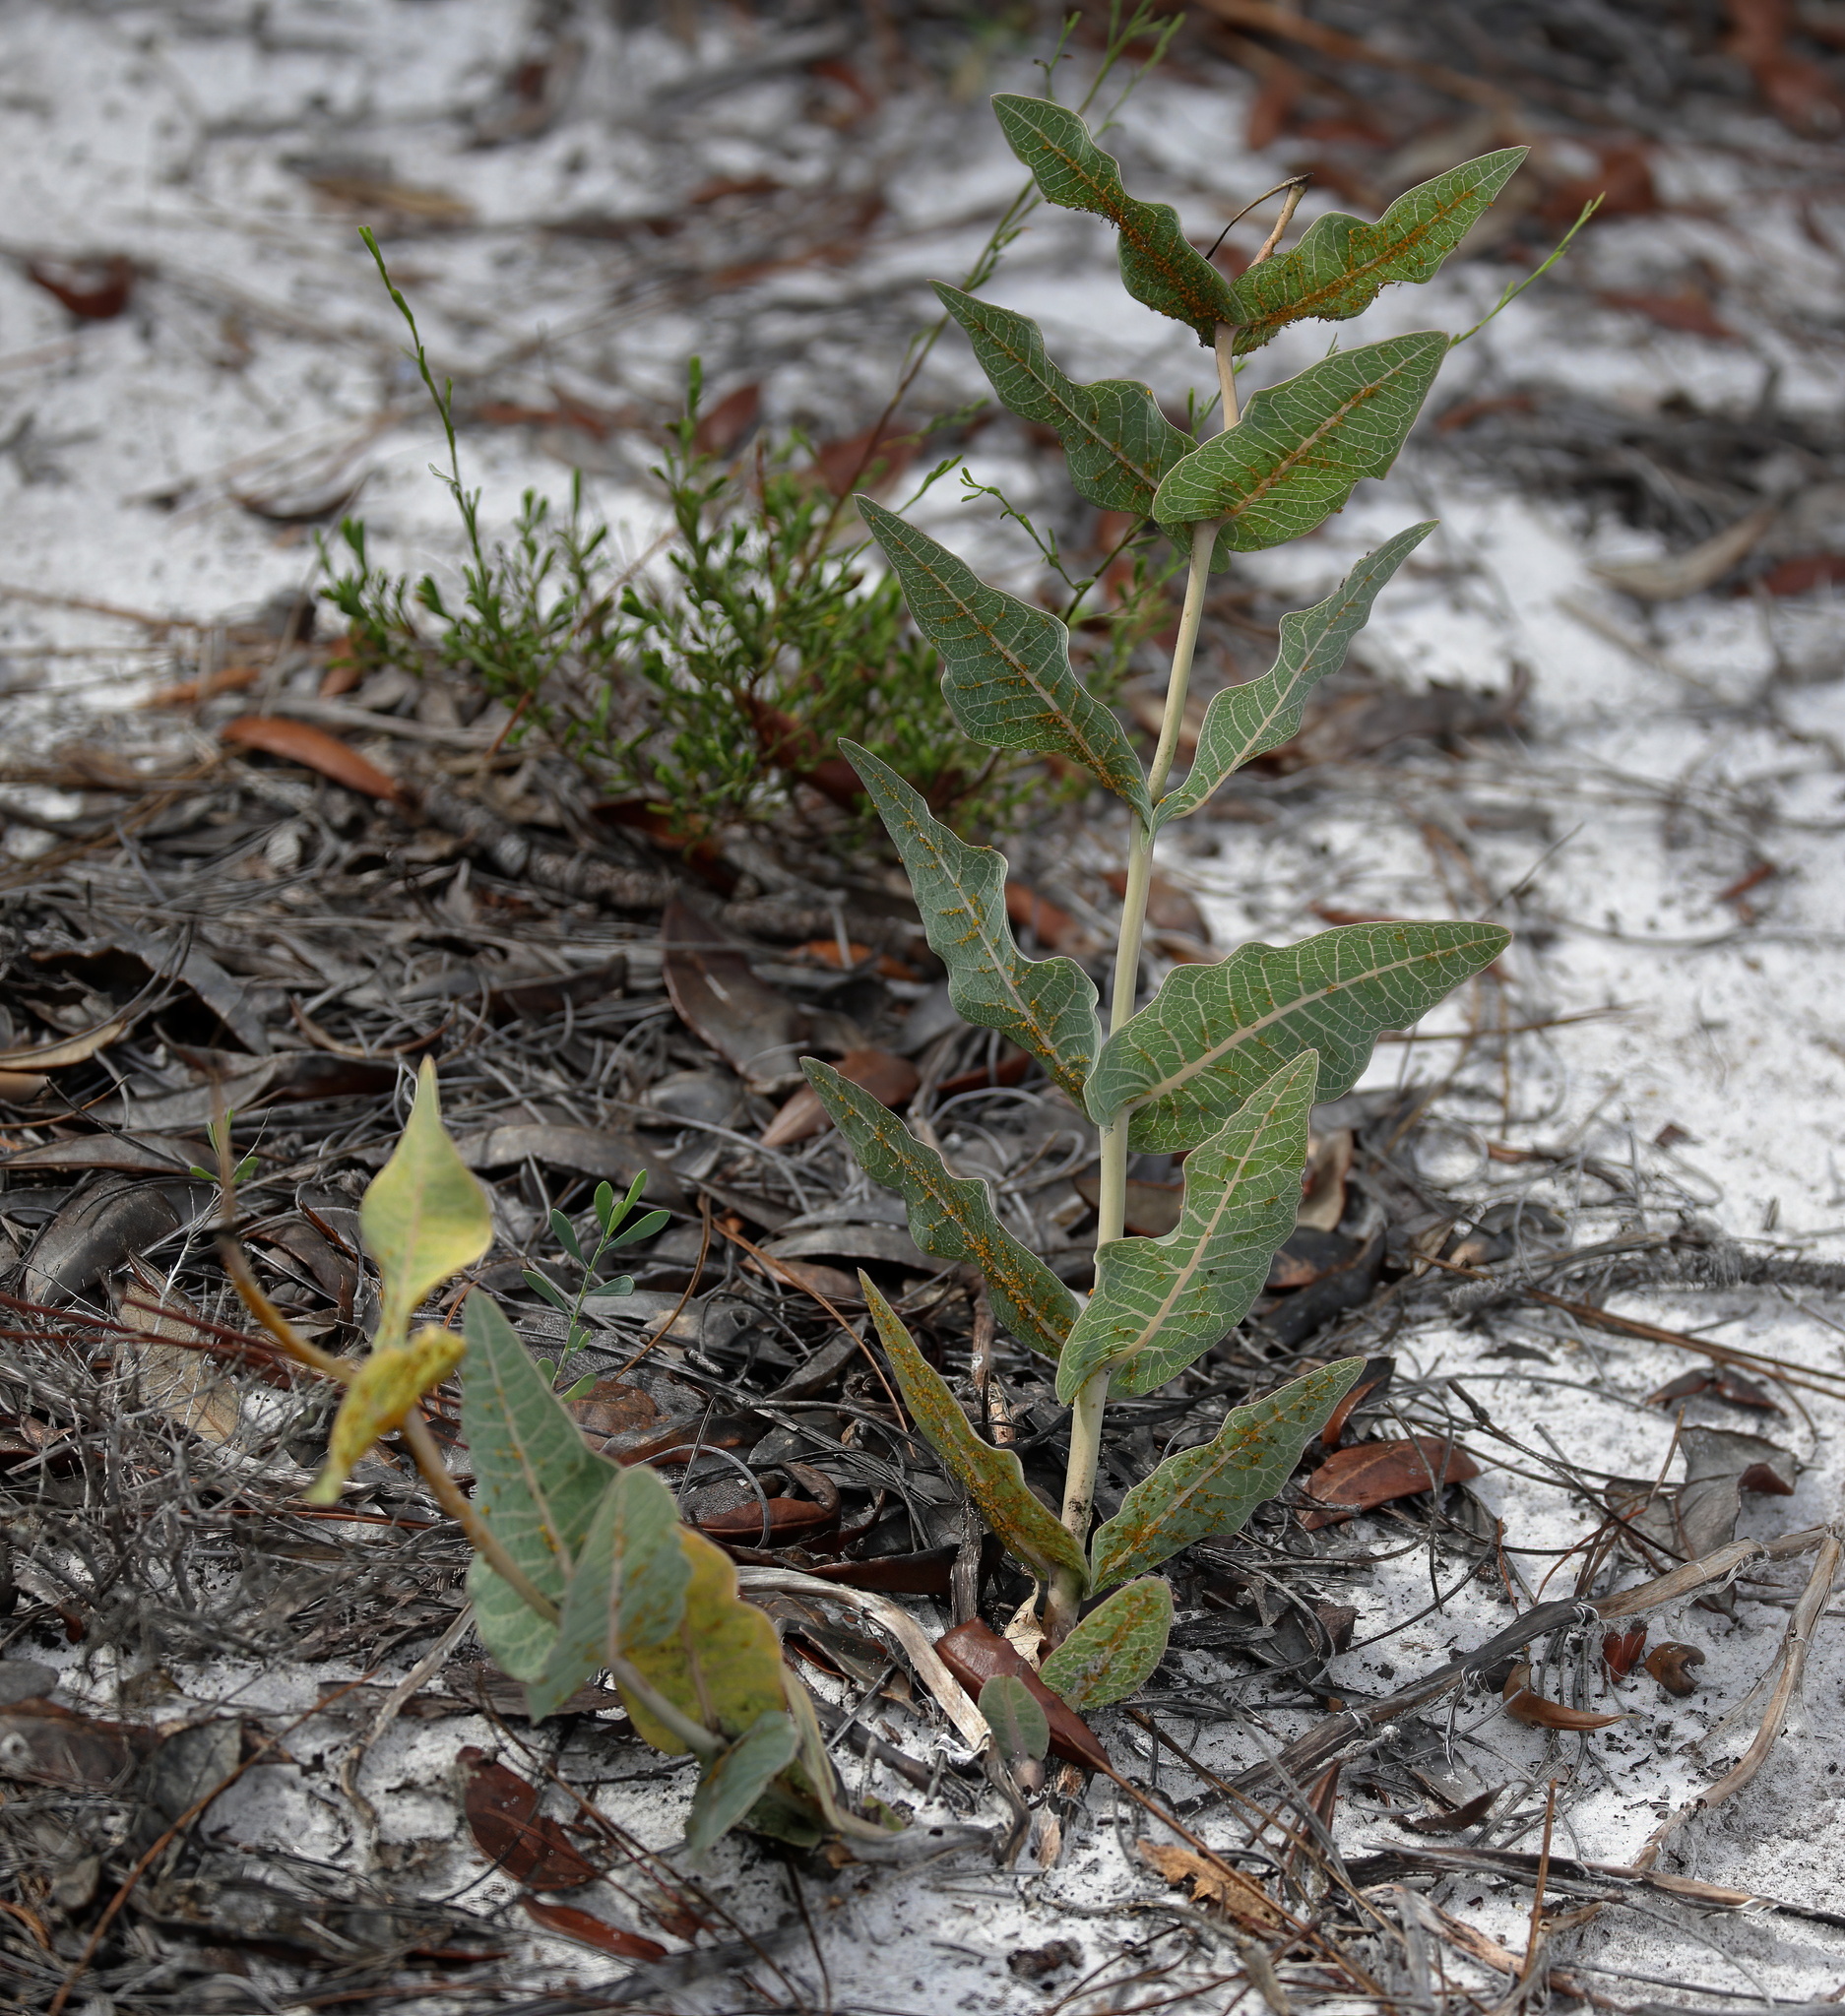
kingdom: Plantae
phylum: Tracheophyta
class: Magnoliopsida
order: Gentianales
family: Apocynaceae
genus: Asclepias
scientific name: Asclepias humistrata
